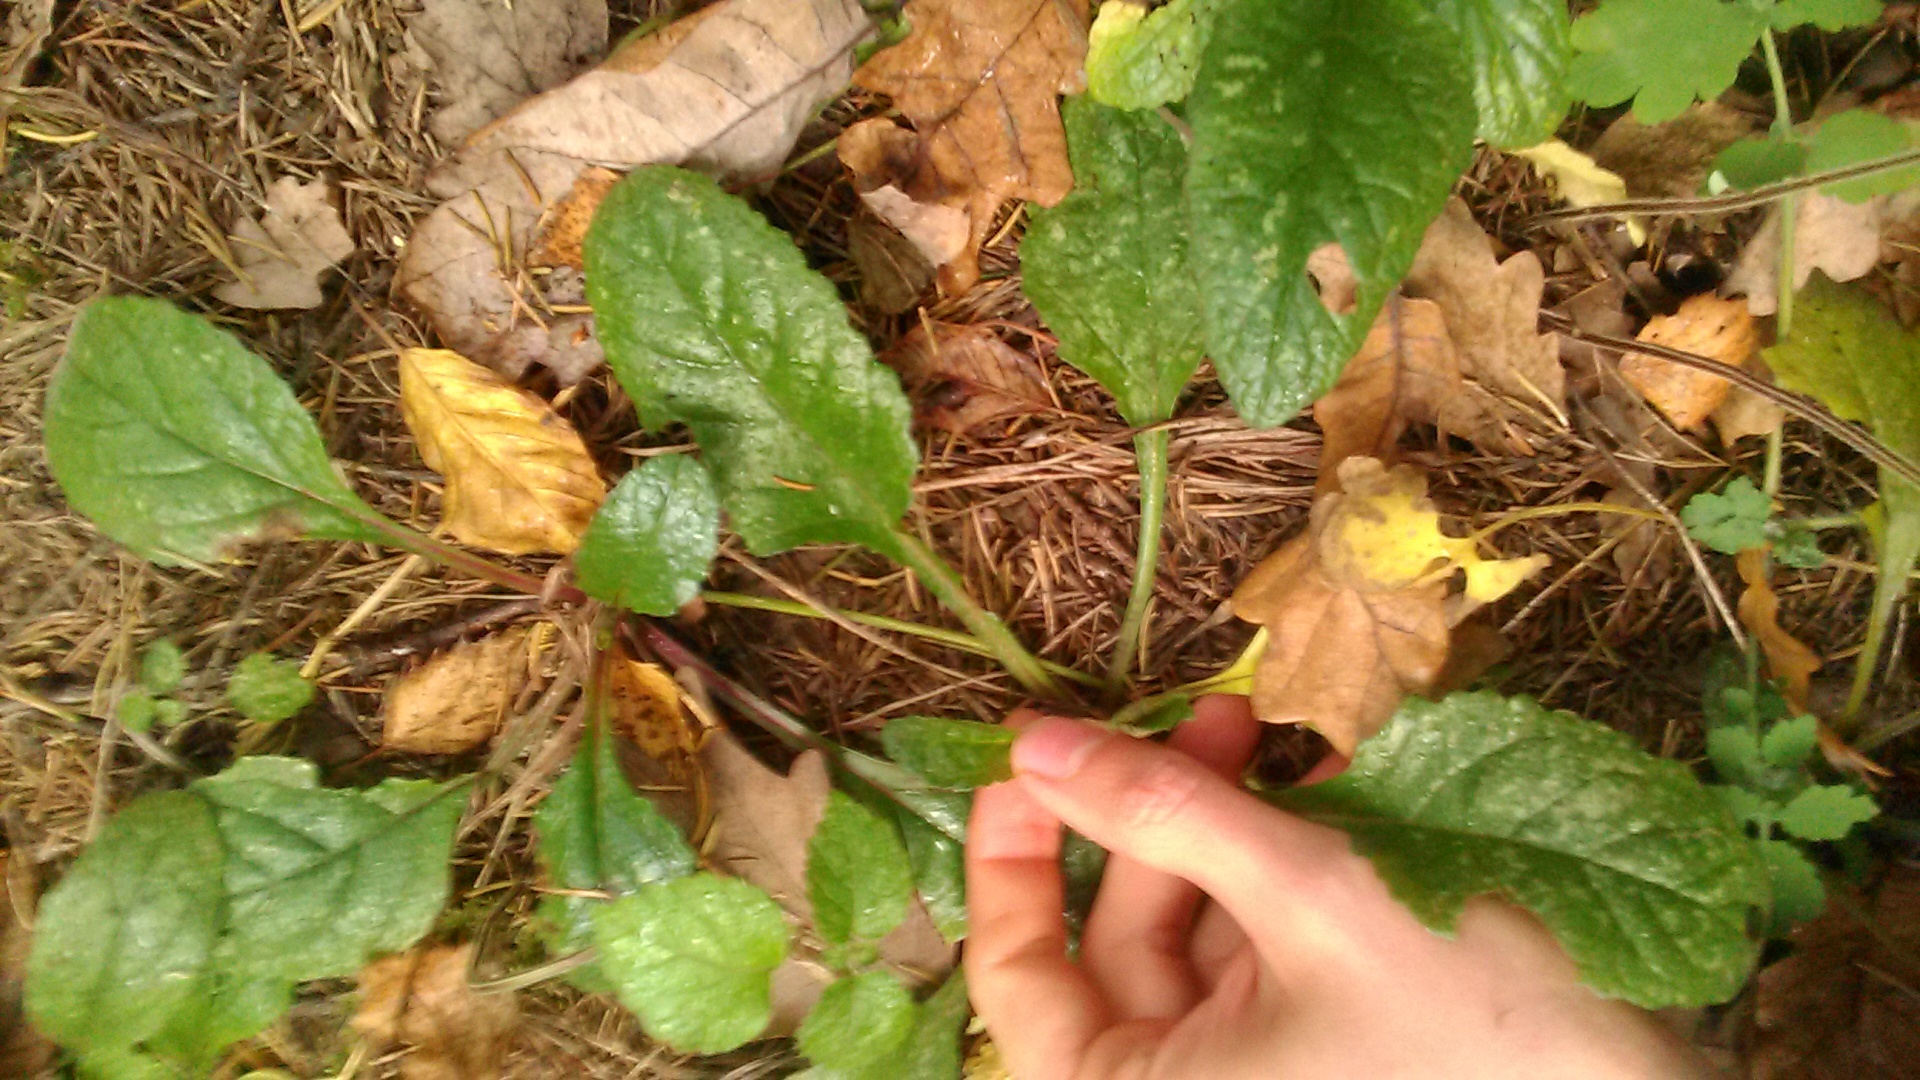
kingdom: Plantae
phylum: Tracheophyta
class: Magnoliopsida
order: Lamiales
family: Lamiaceae
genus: Ajuga
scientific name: Ajuga reptans
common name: Bugle
